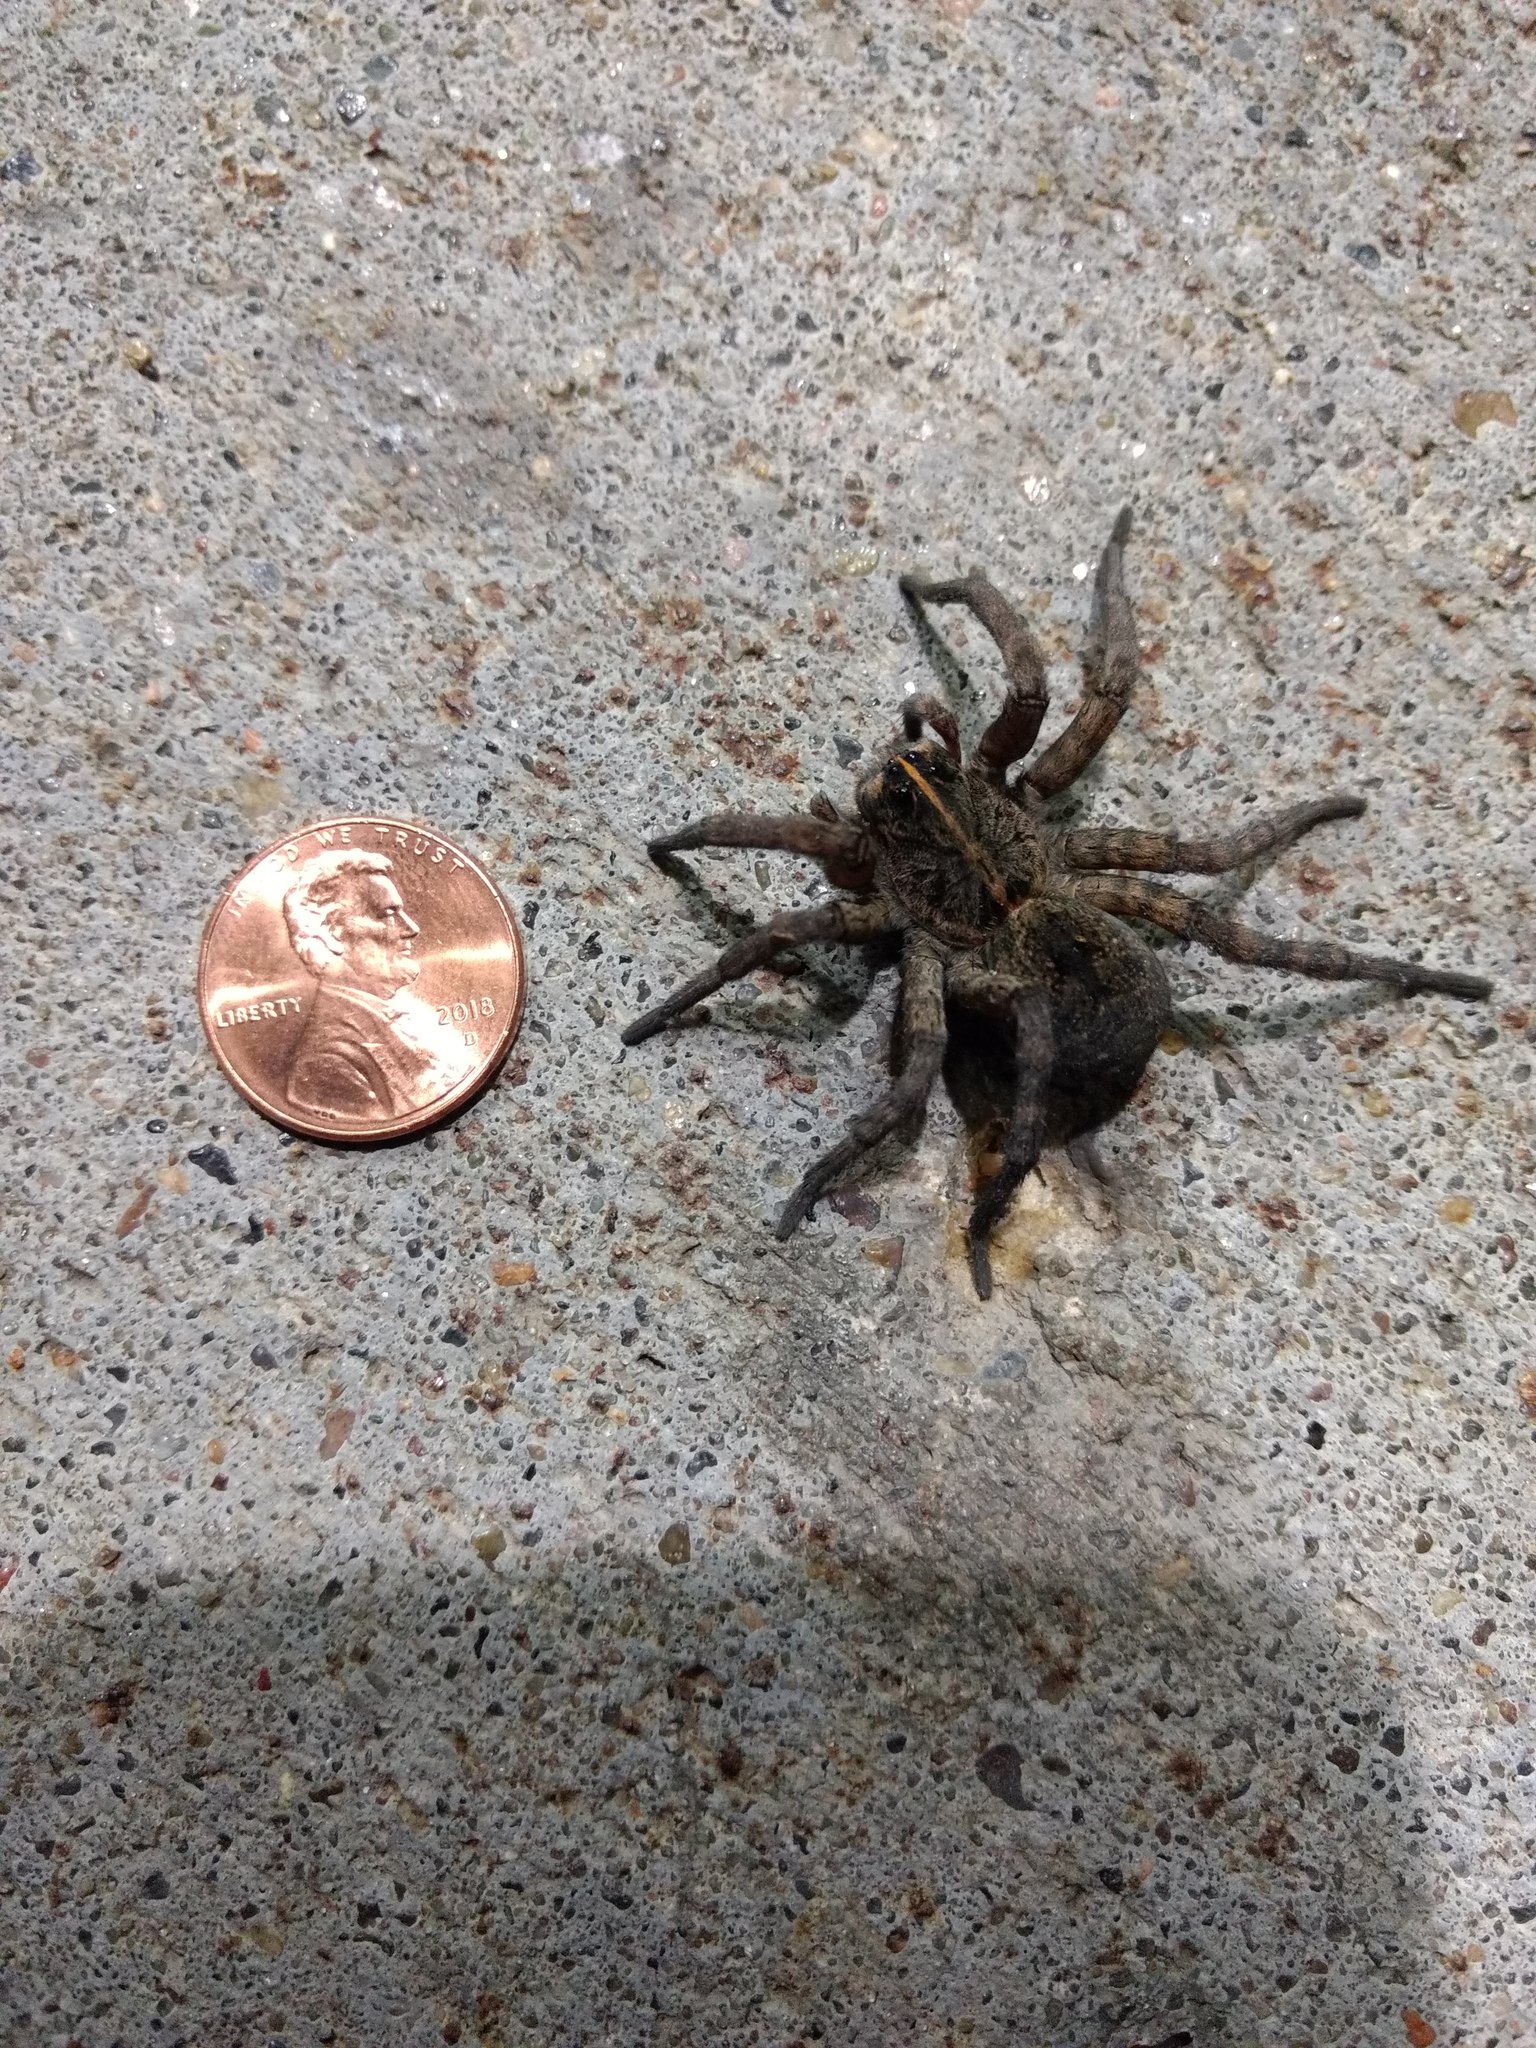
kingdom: Animalia
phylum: Arthropoda
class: Arachnida
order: Araneae
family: Lycosidae
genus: Tigrosa
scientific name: Tigrosa grandis
